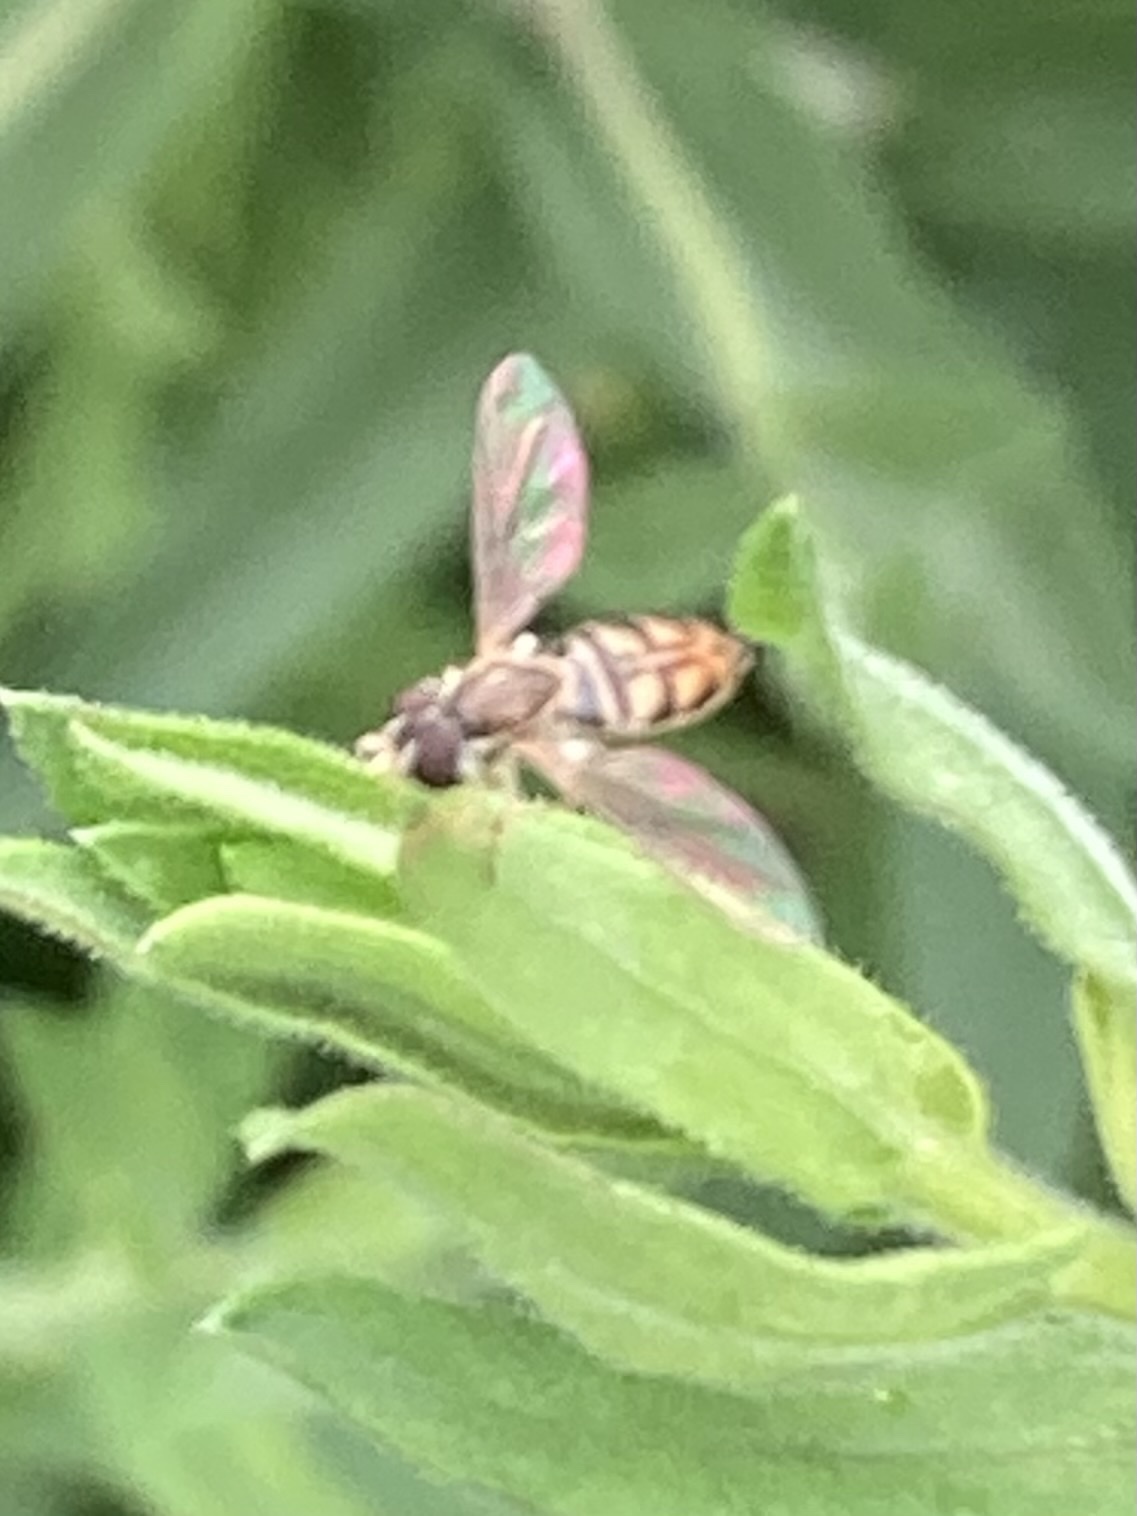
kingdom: Animalia
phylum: Arthropoda
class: Insecta
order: Diptera
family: Syrphidae
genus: Toxomerus
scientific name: Toxomerus marginatus
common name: Syrphid fly
